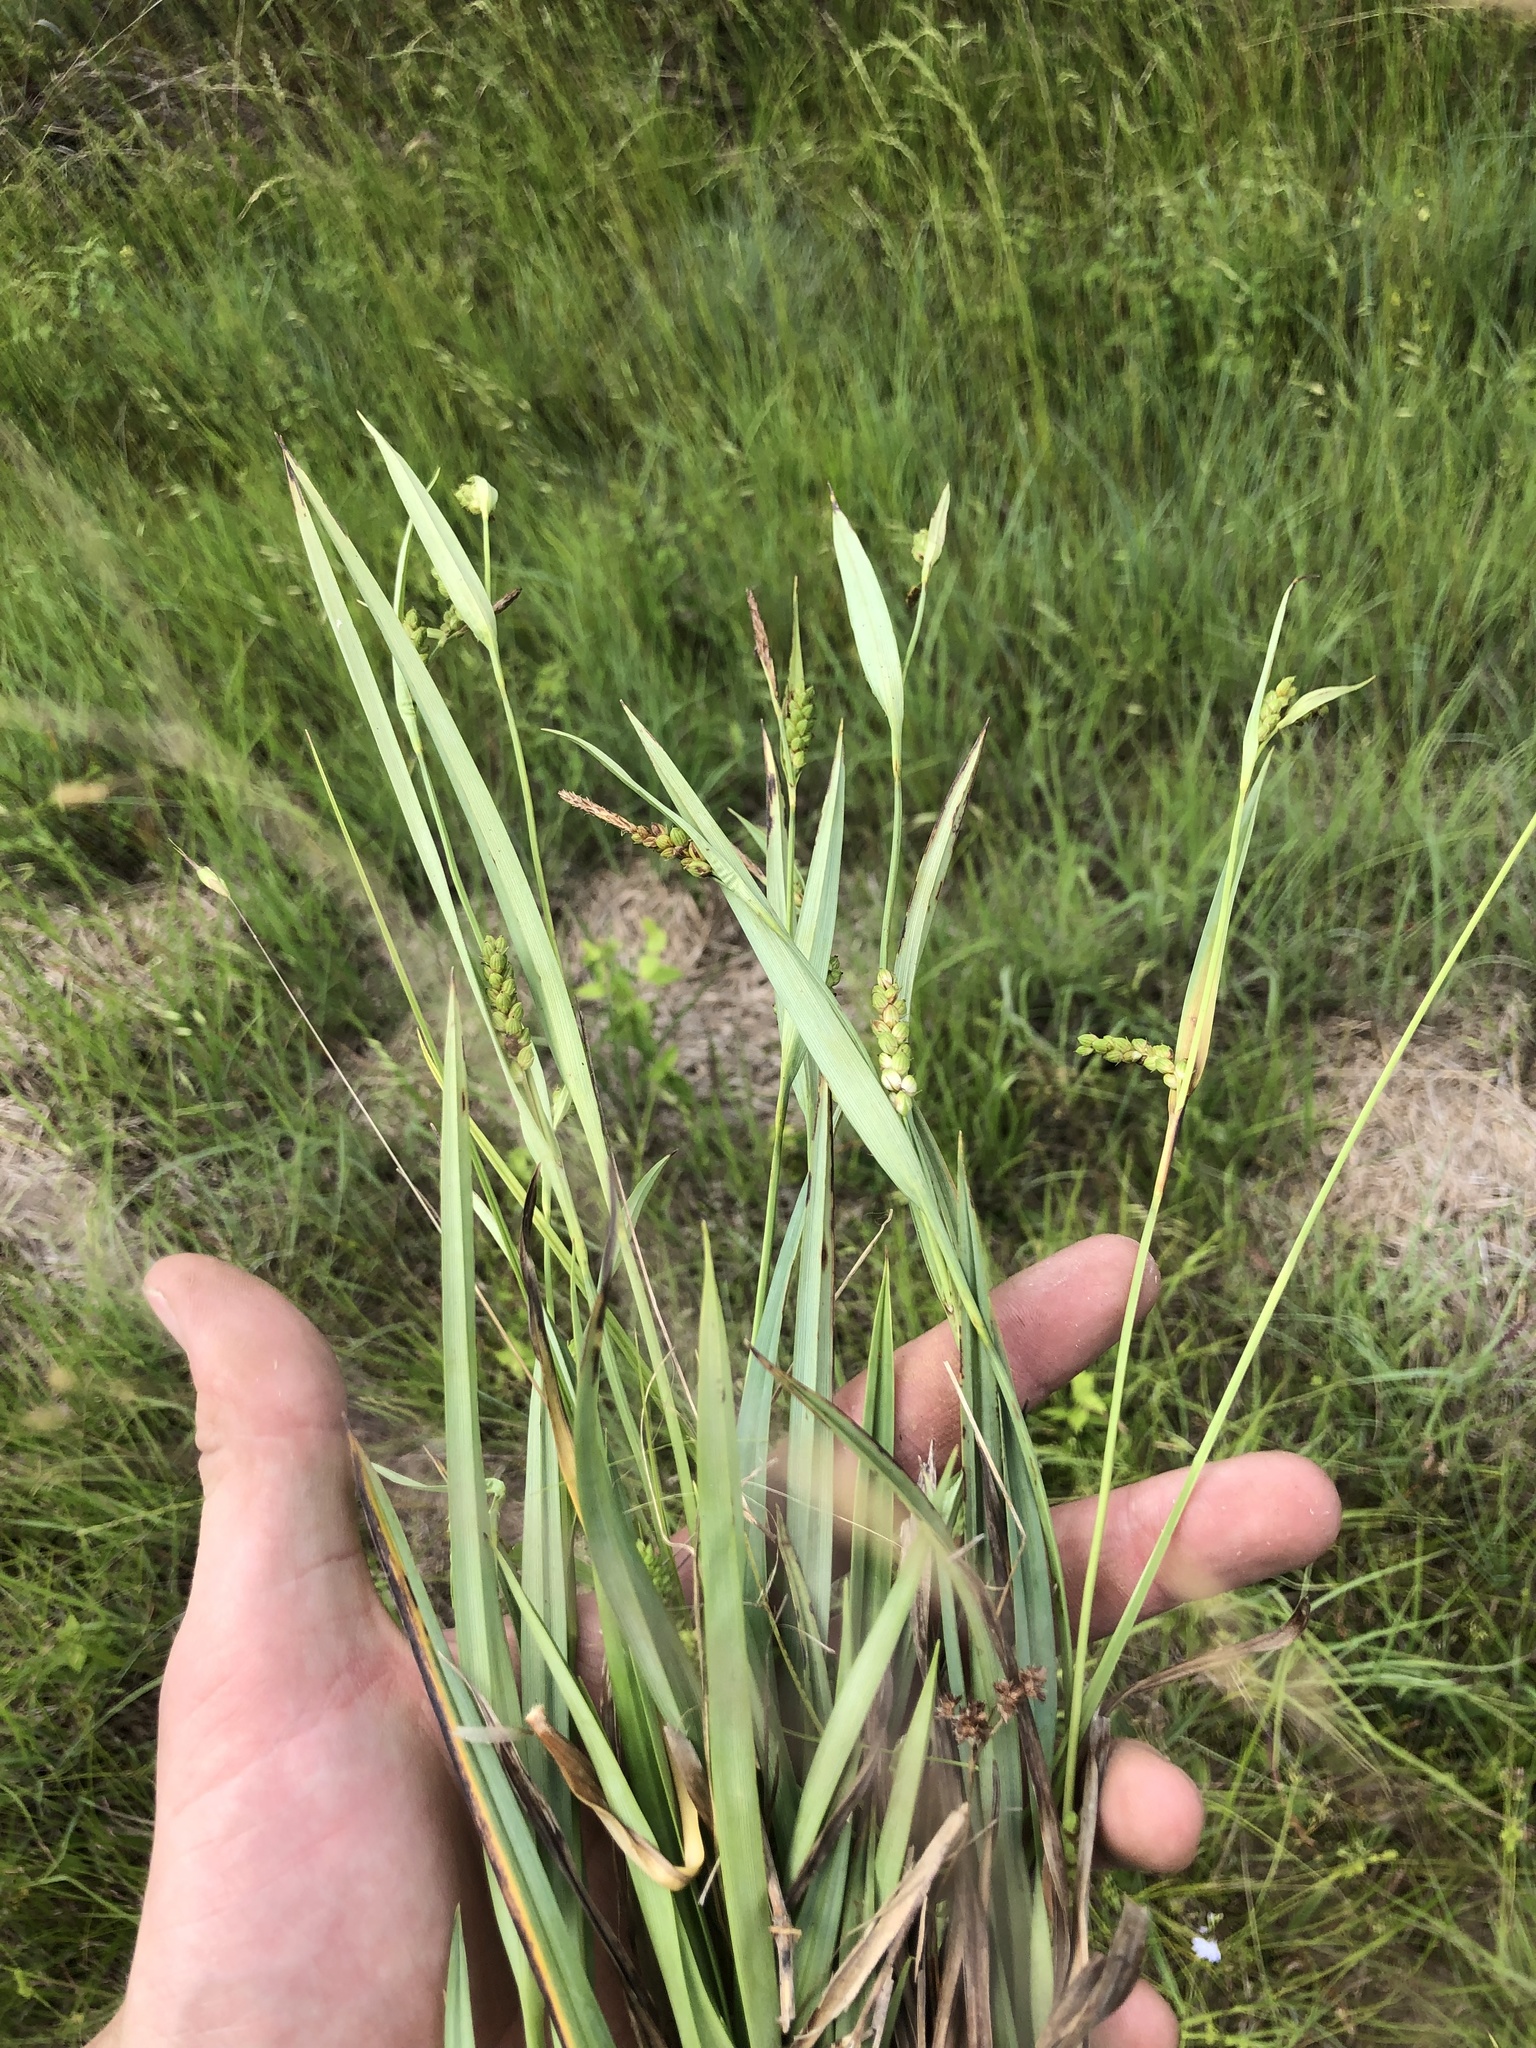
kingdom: Plantae
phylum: Tracheophyta
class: Liliopsida
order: Poales
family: Cyperaceae
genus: Carex
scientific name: Carex glaucodea
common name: Blue sedge
